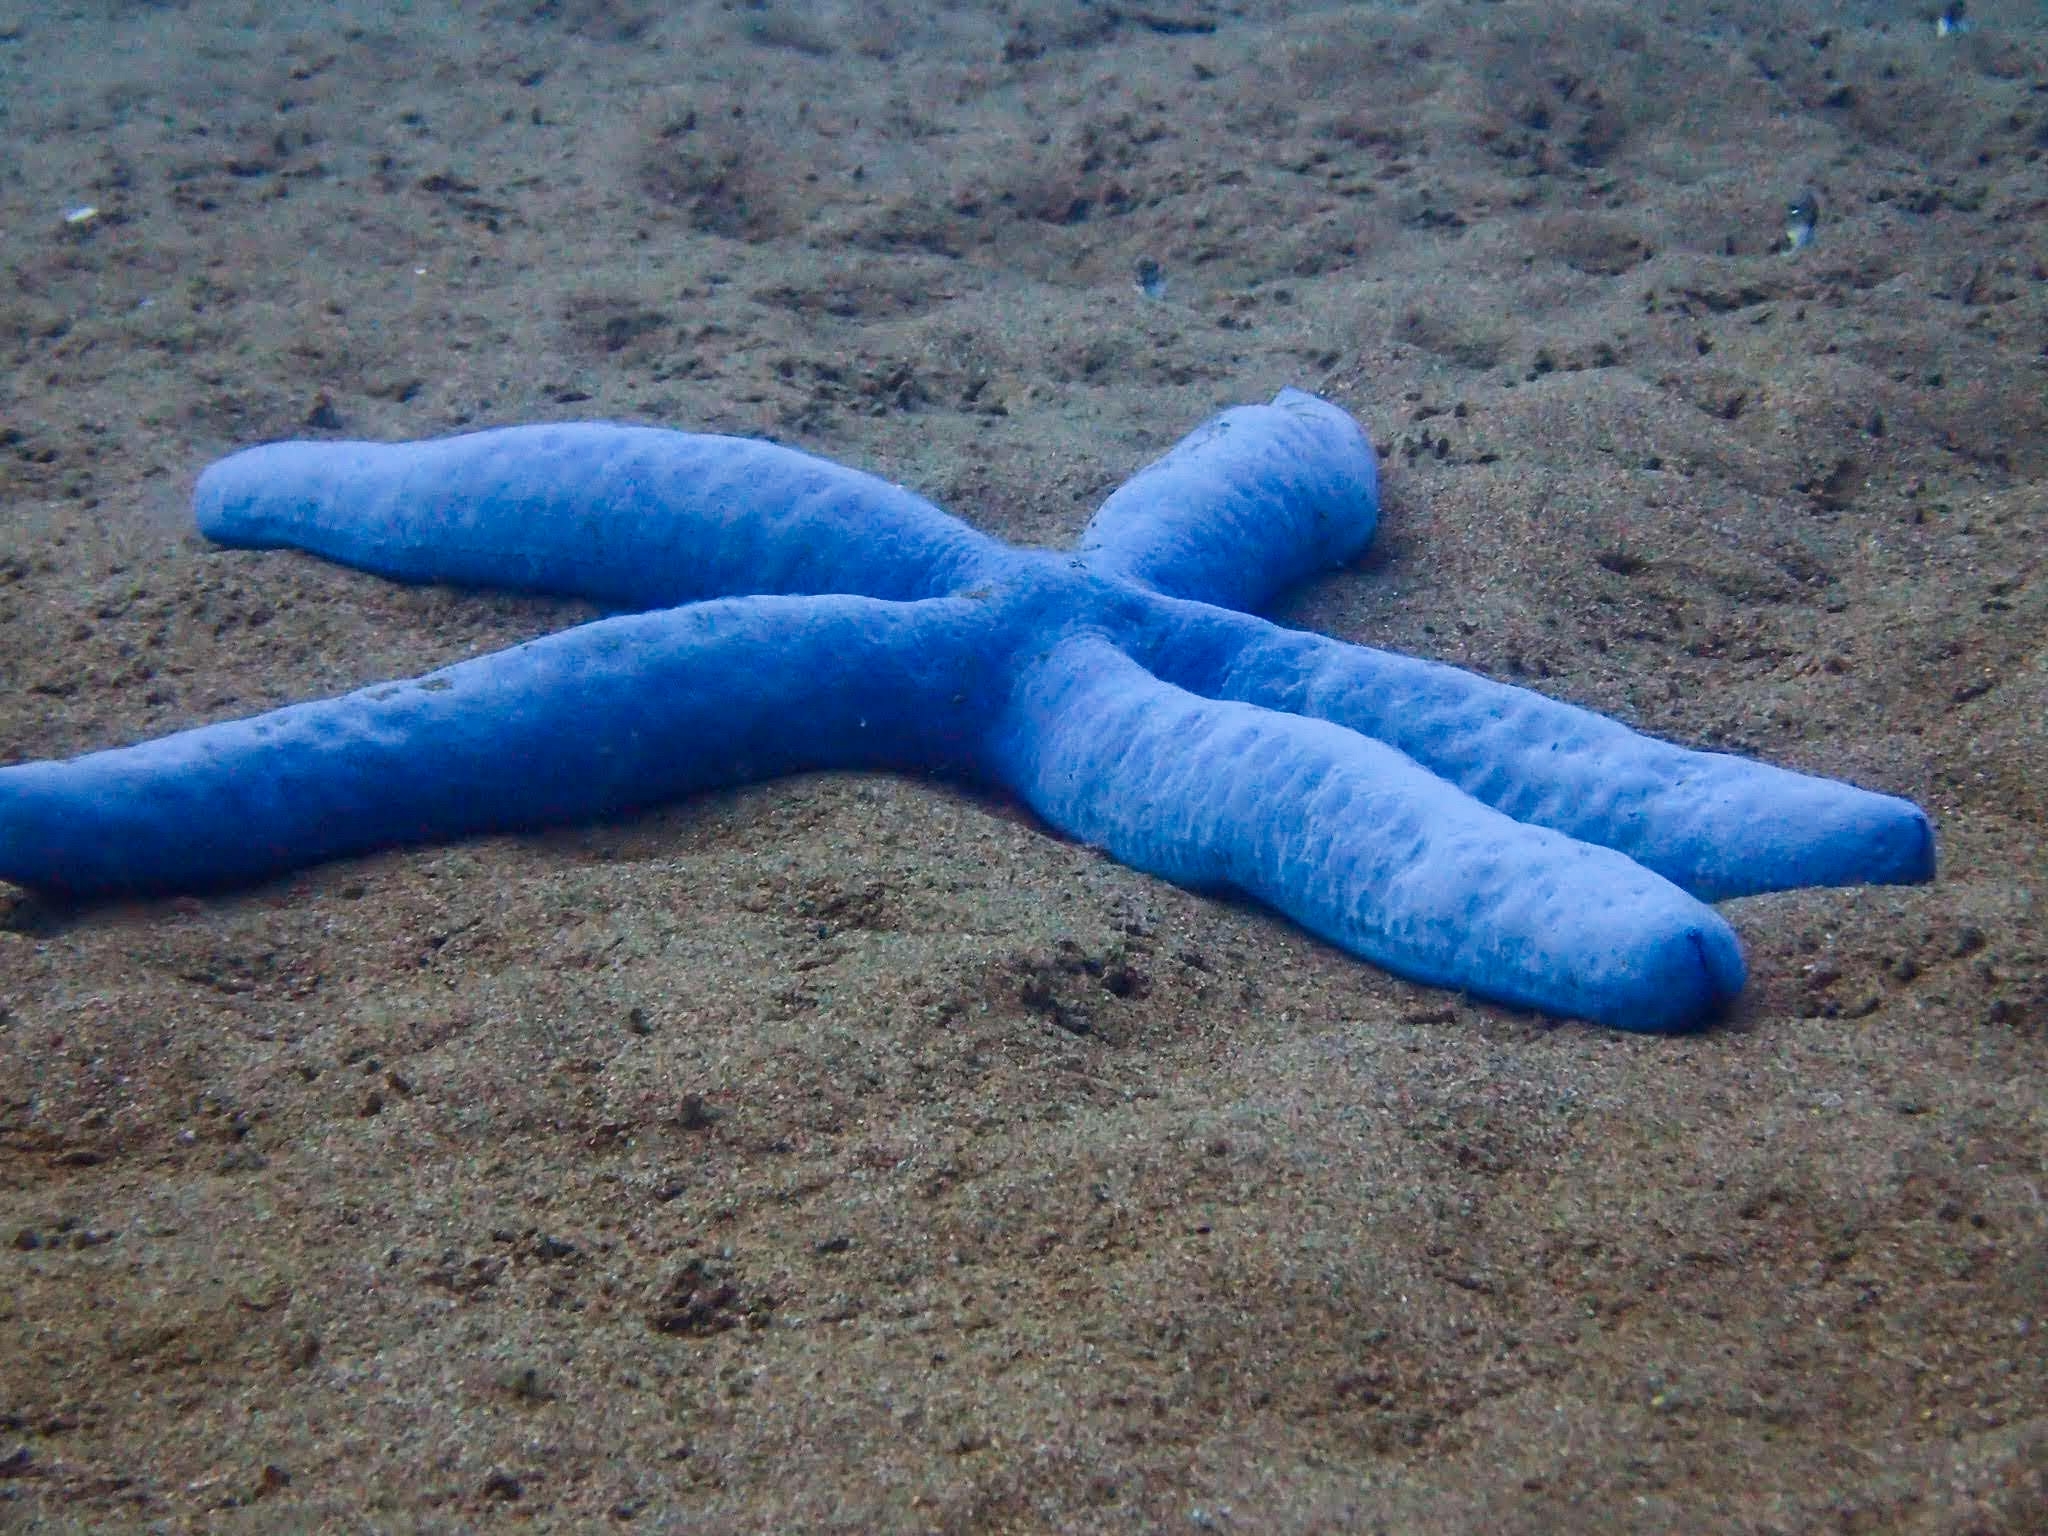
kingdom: Animalia
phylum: Echinodermata
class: Asteroidea
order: Valvatida
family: Ophidiasteridae
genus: Linckia
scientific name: Linckia laevigata
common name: Azure sea star
